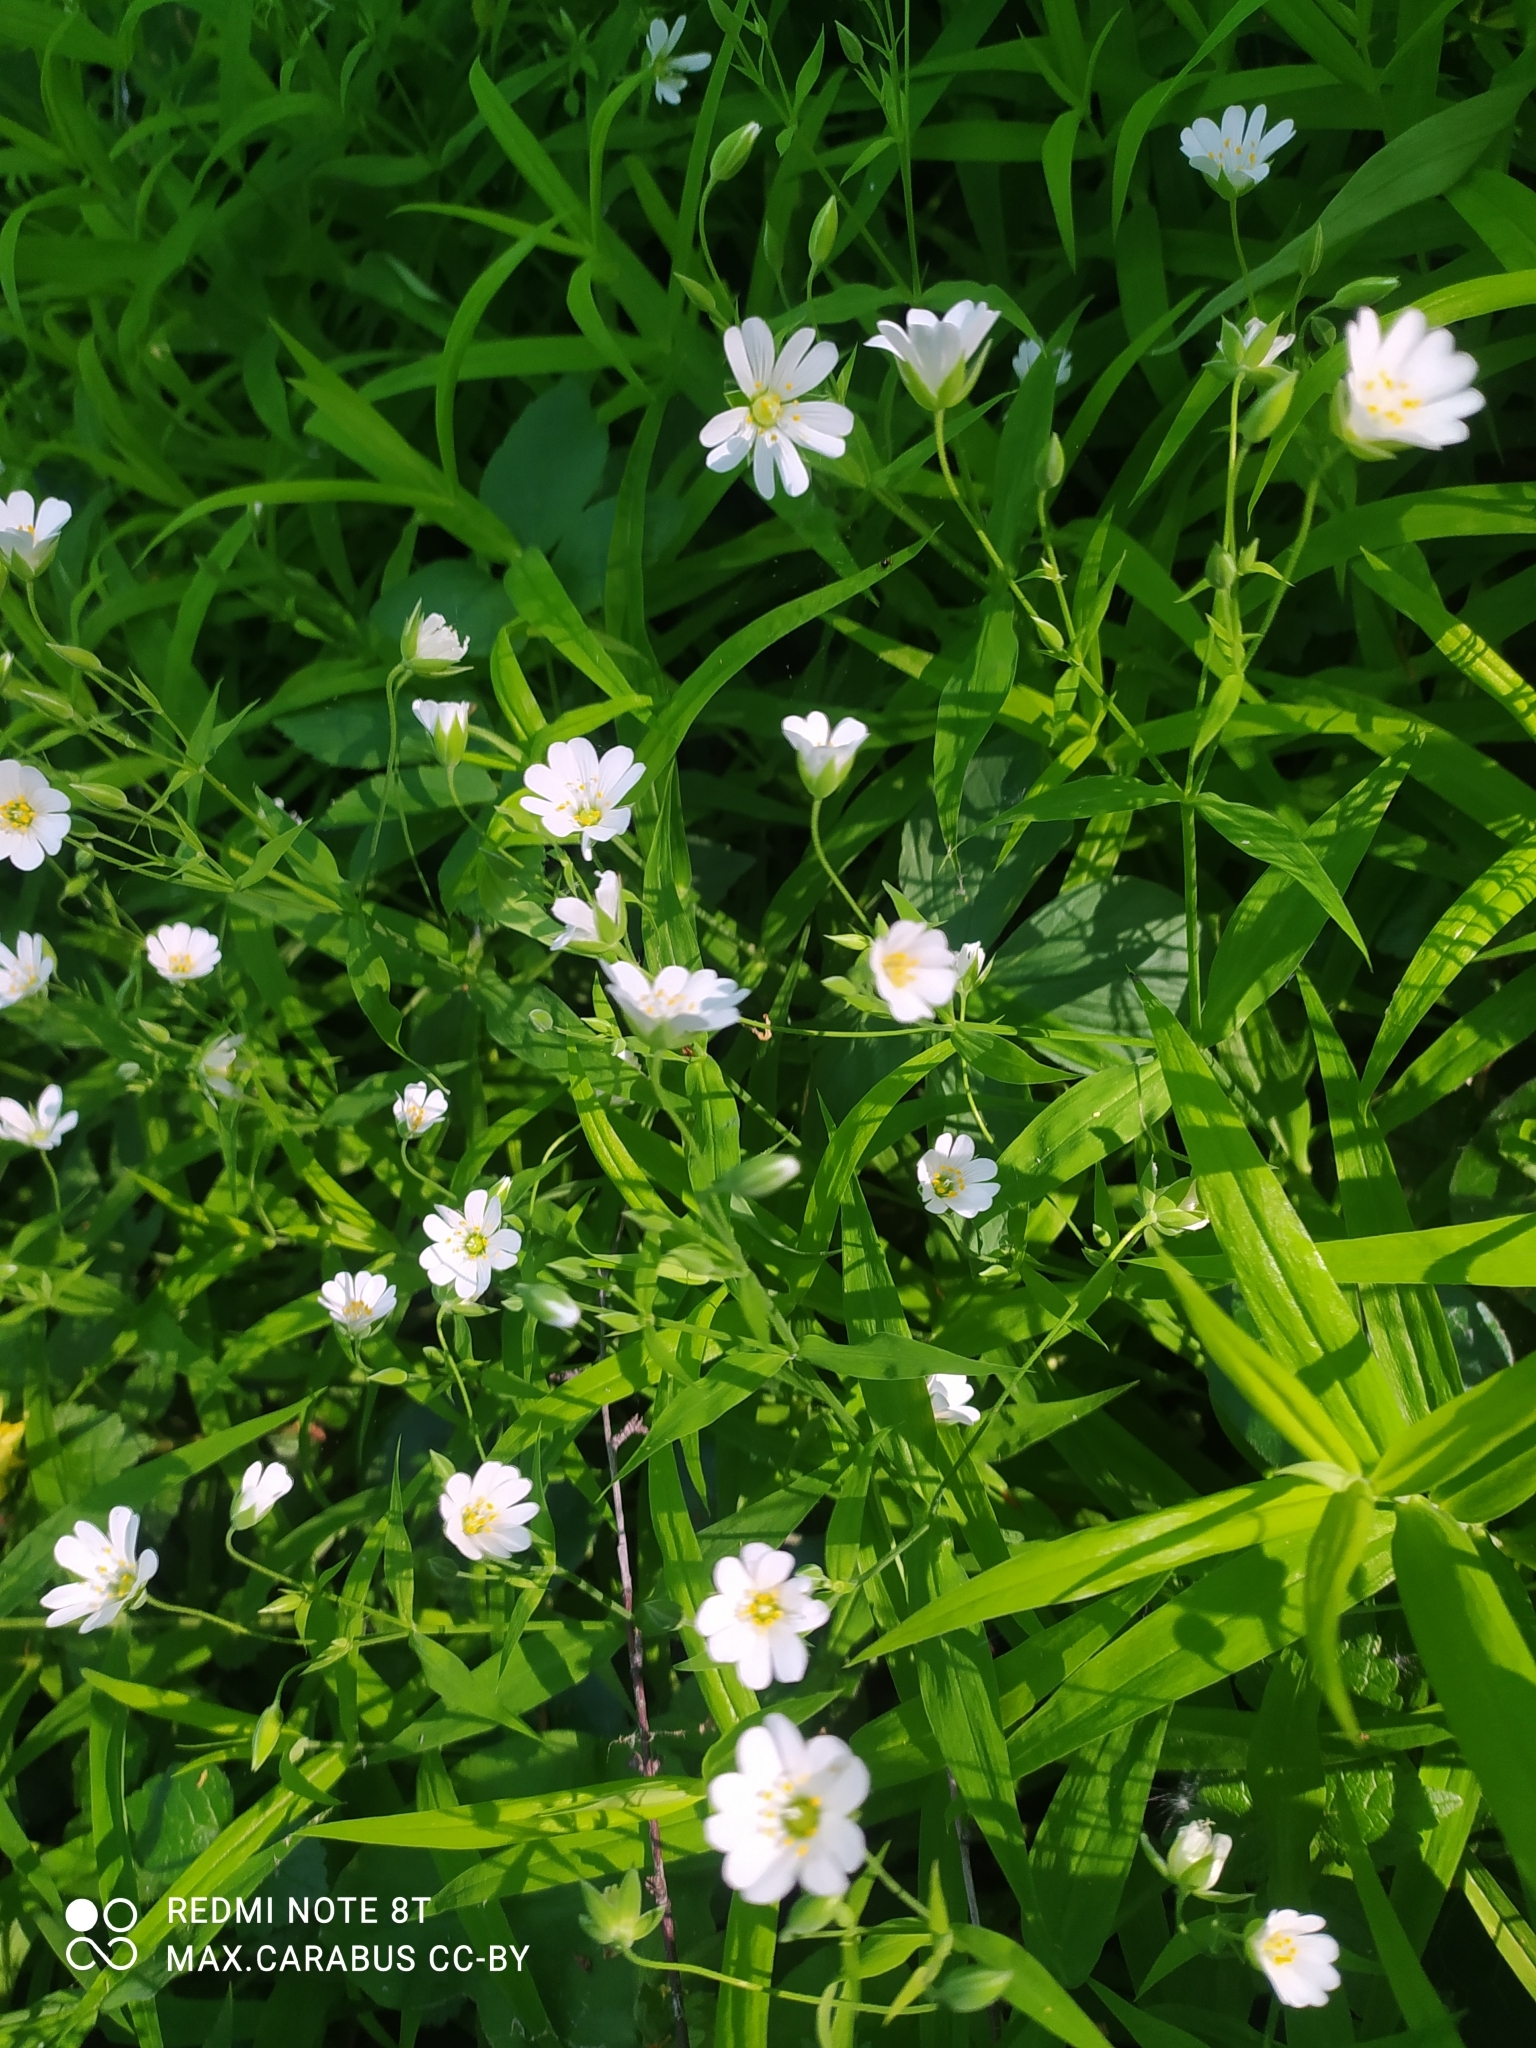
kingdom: Plantae
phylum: Tracheophyta
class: Magnoliopsida
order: Caryophyllales
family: Caryophyllaceae
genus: Rabelera
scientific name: Rabelera holostea
